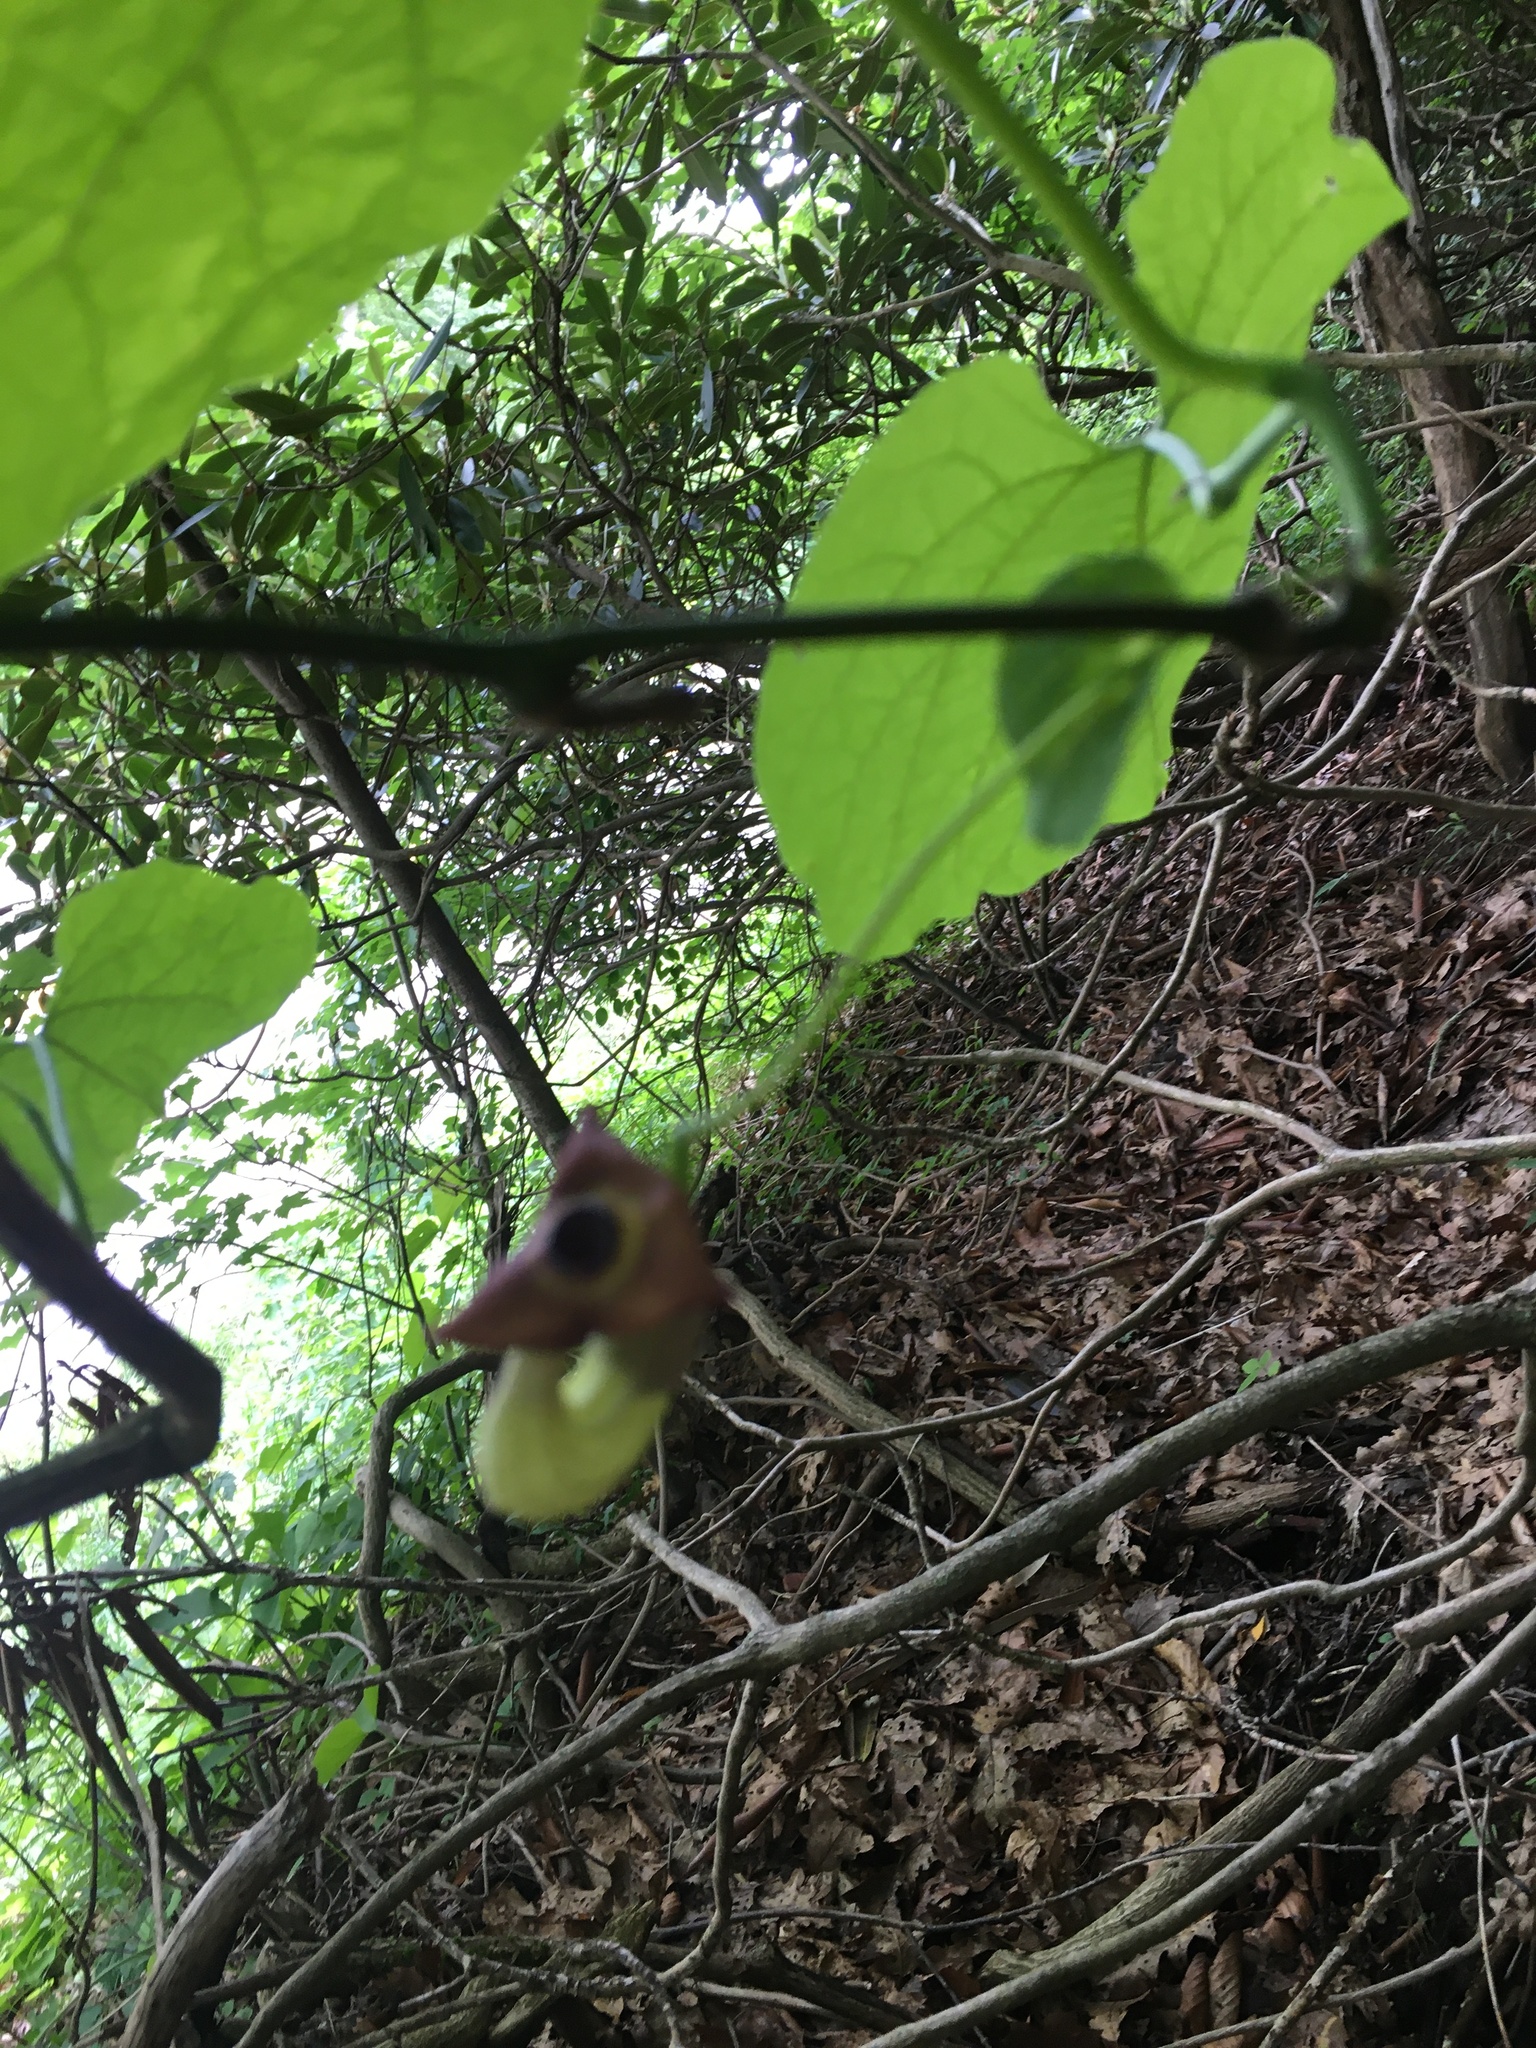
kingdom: Plantae
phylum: Tracheophyta
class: Magnoliopsida
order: Piperales
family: Aristolochiaceae
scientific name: Aristolochiaceae
